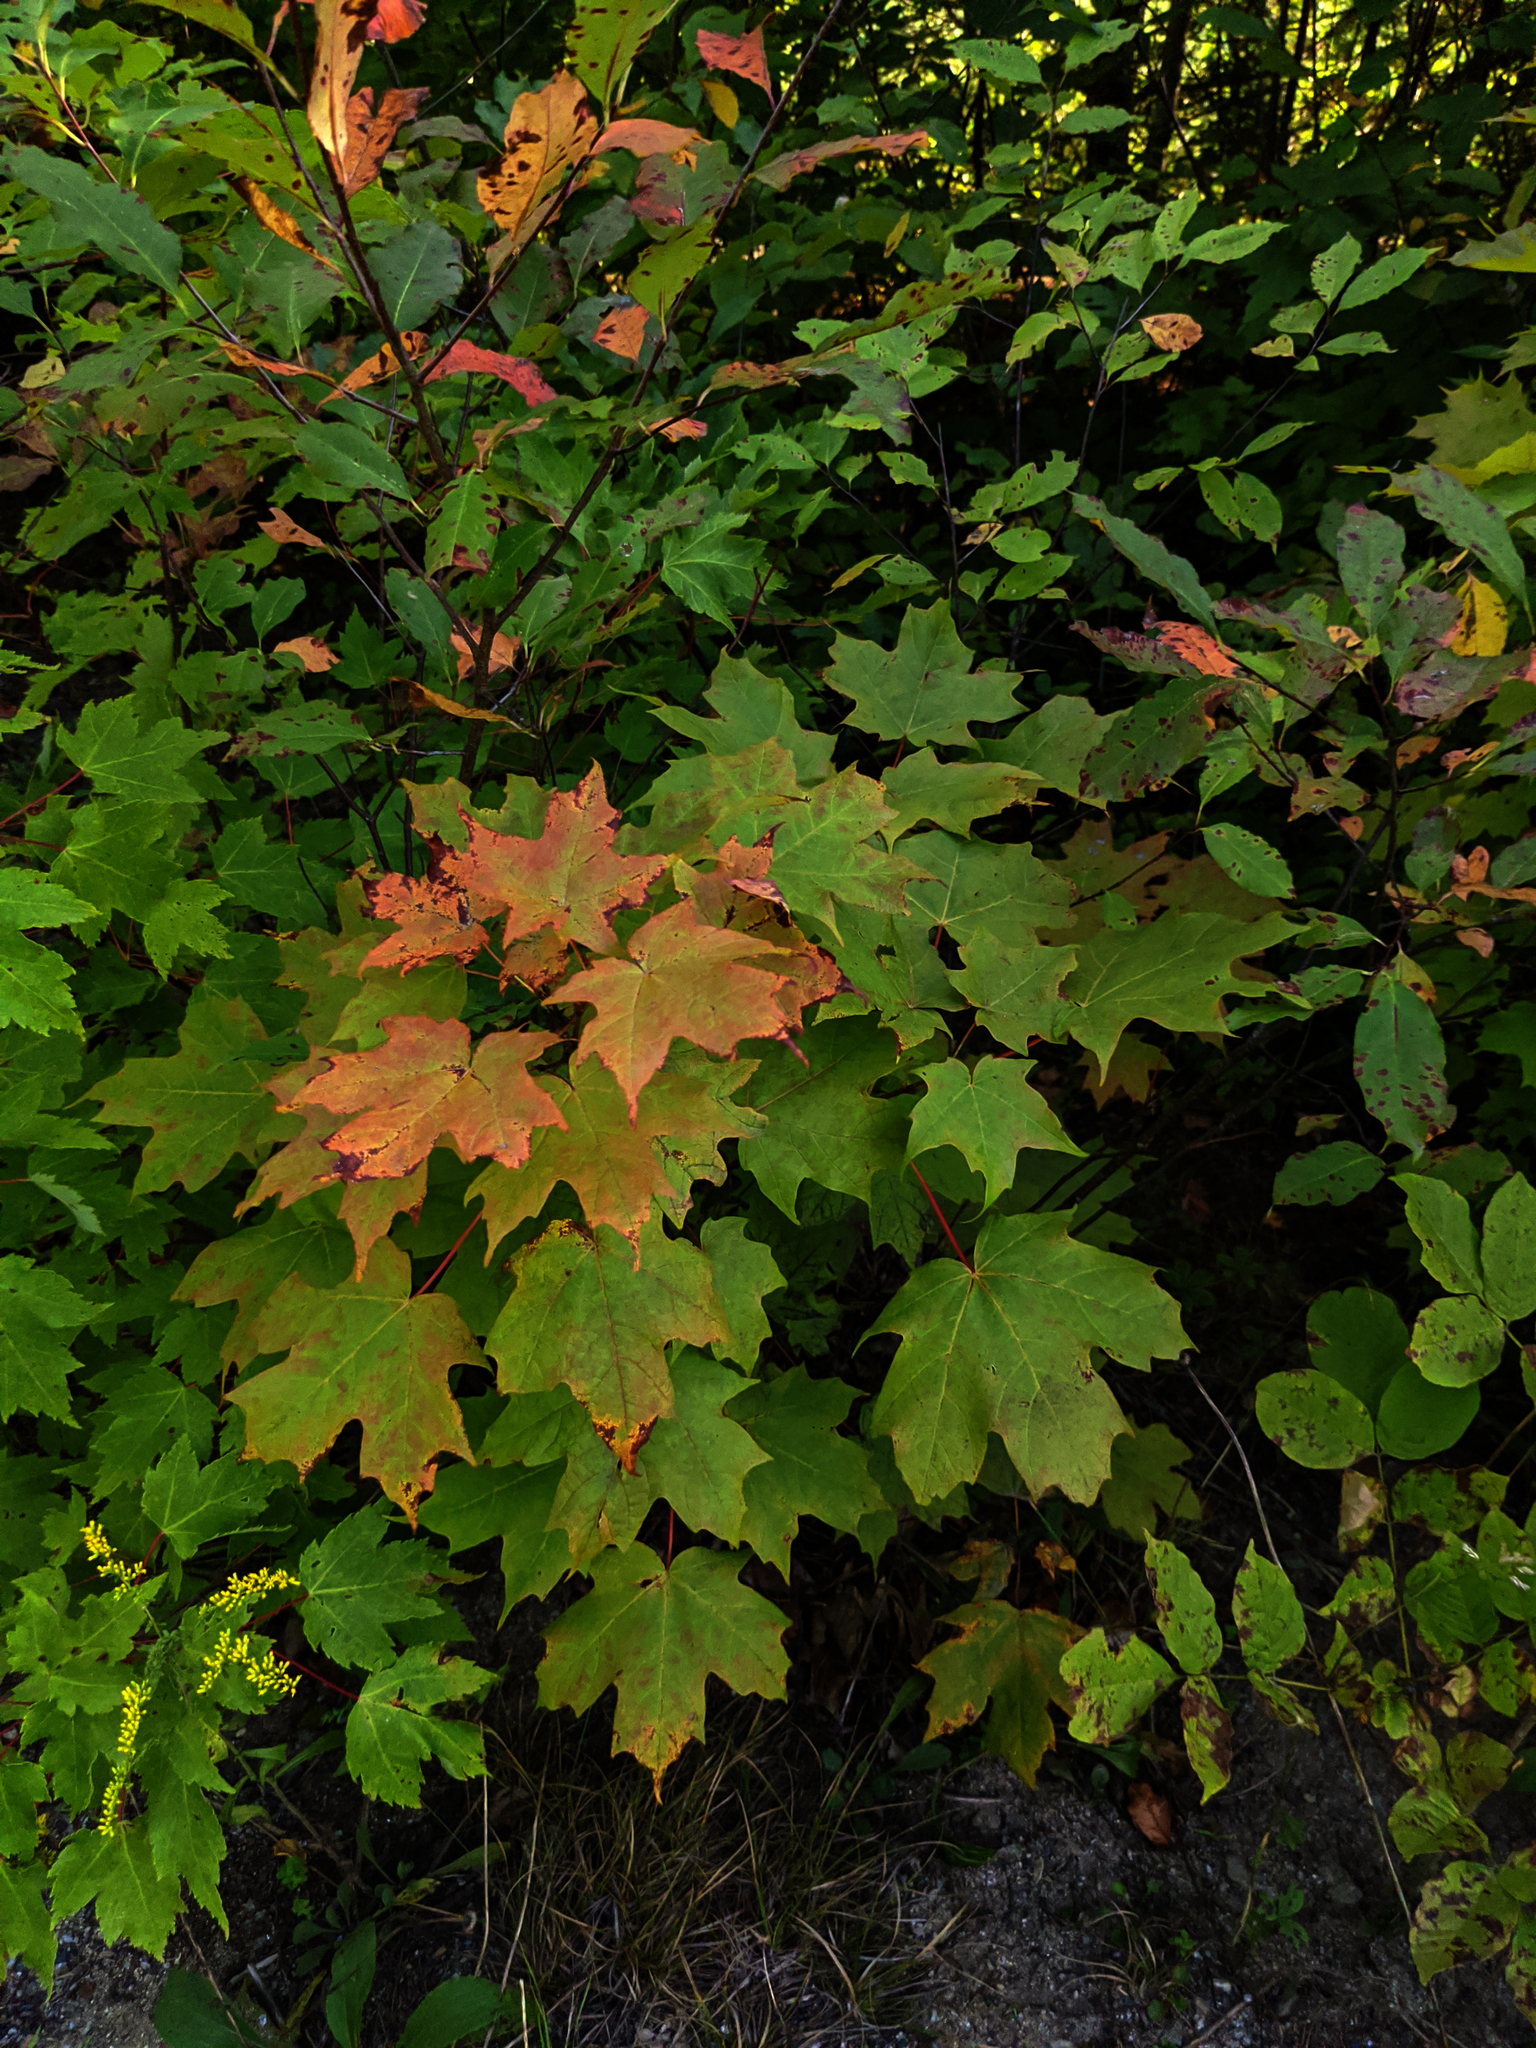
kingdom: Plantae
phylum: Tracheophyta
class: Magnoliopsida
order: Sapindales
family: Sapindaceae
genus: Acer
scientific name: Acer saccharum
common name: Sugar maple
